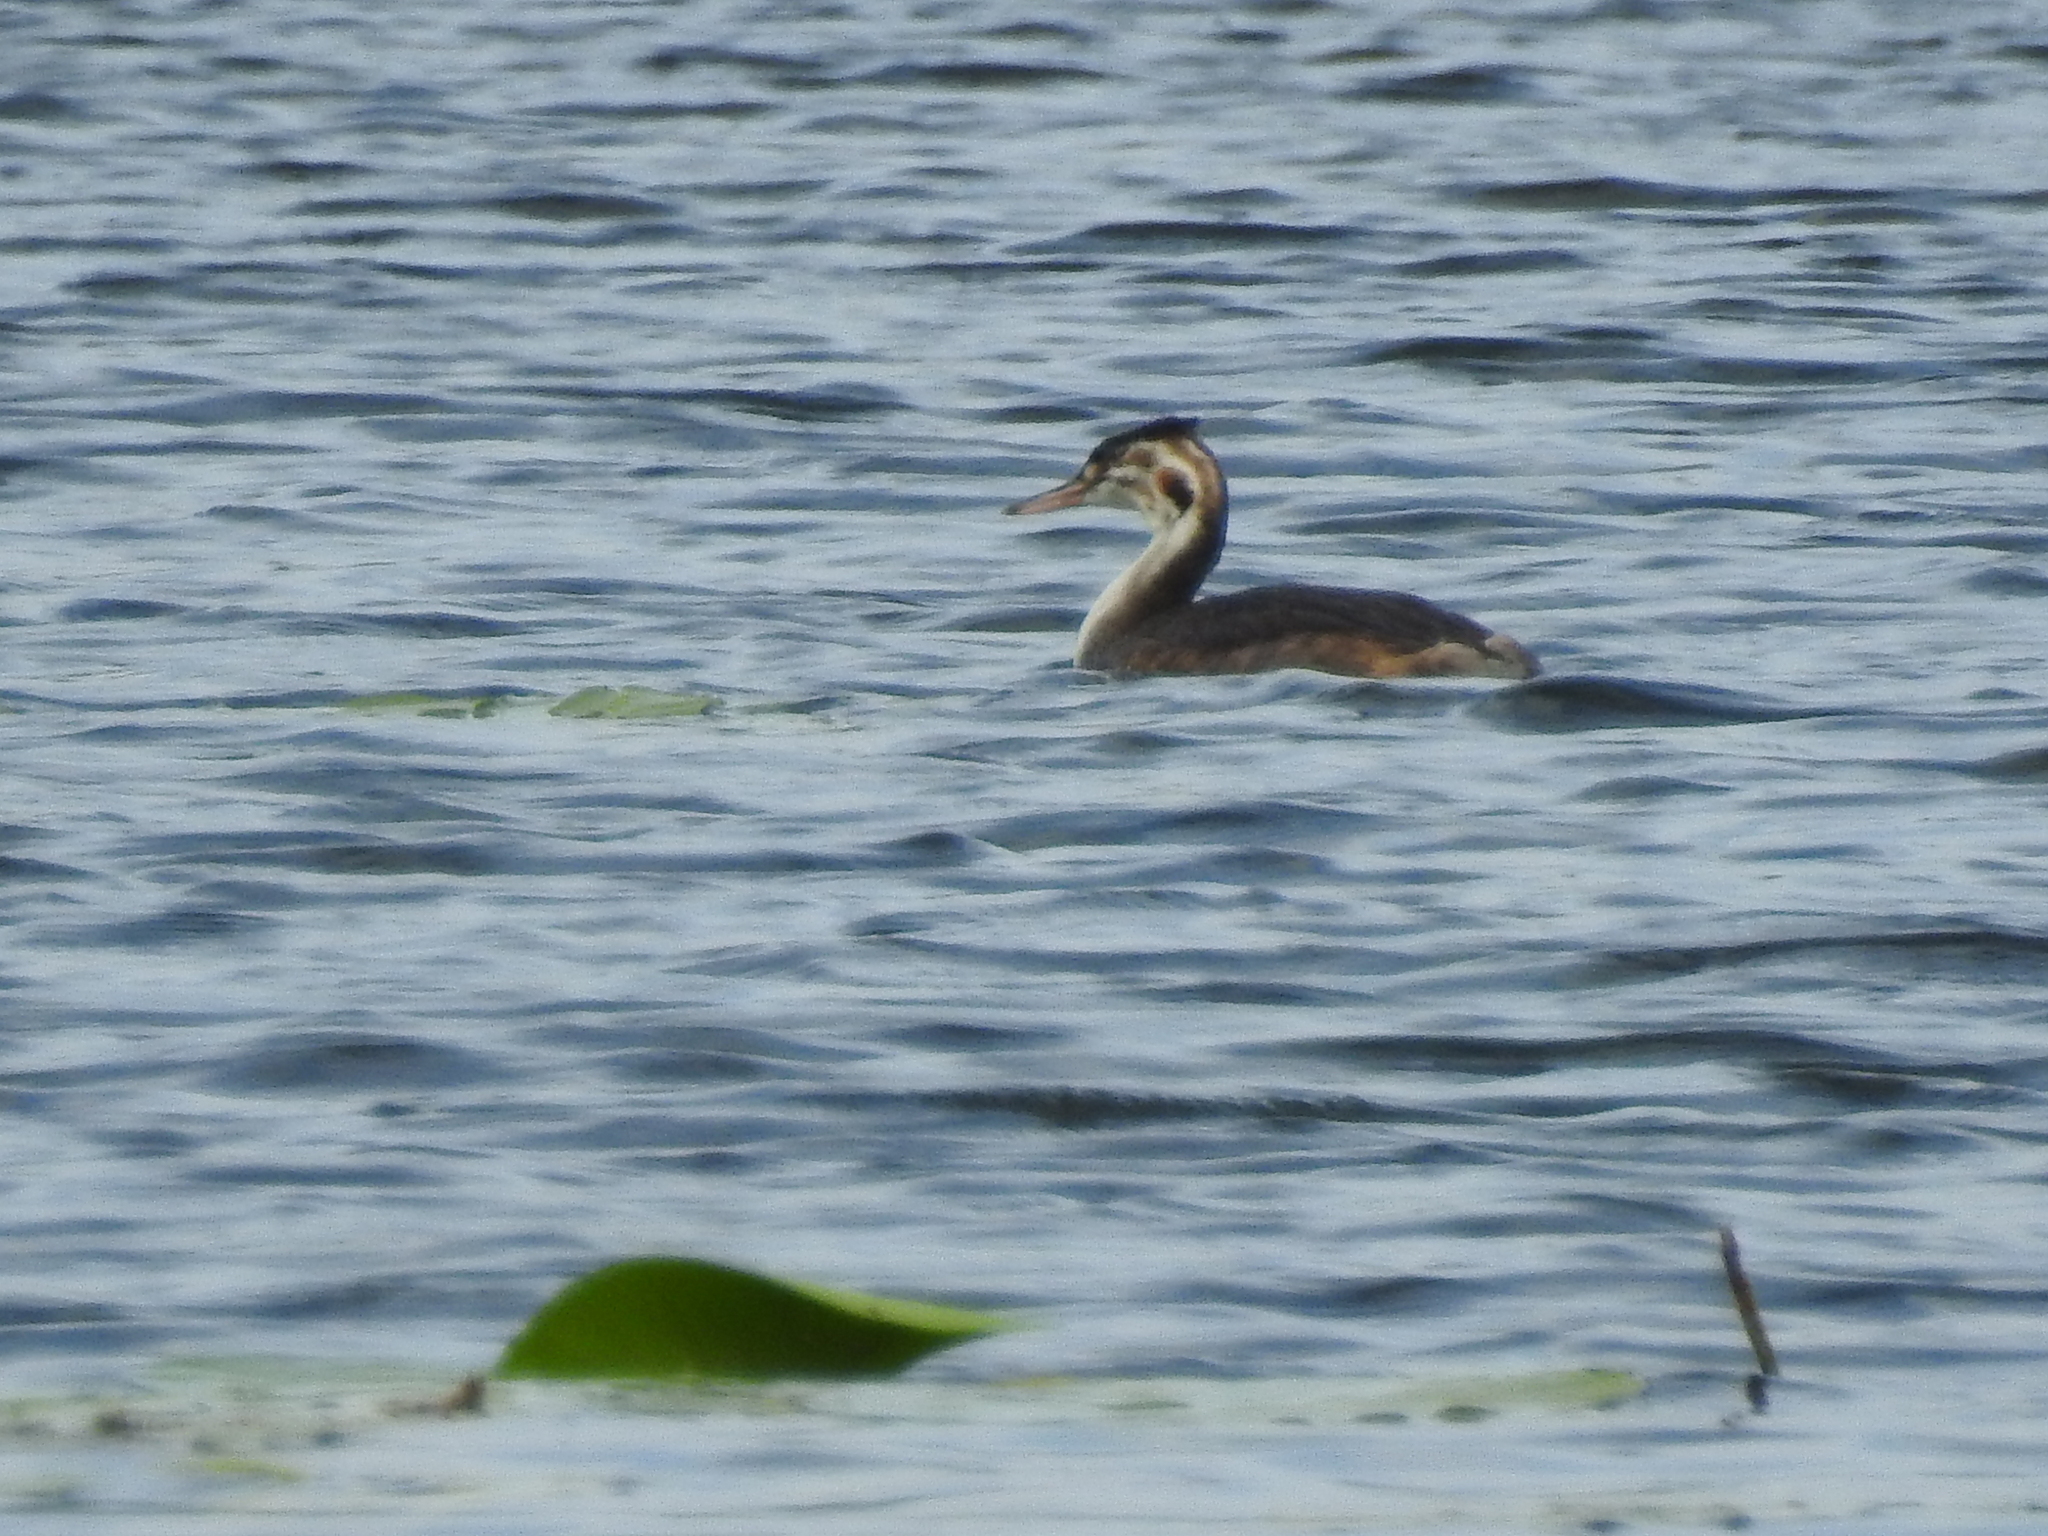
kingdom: Animalia
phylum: Chordata
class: Aves
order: Podicipediformes
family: Podicipedidae
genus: Podiceps
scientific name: Podiceps cristatus
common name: Great crested grebe
